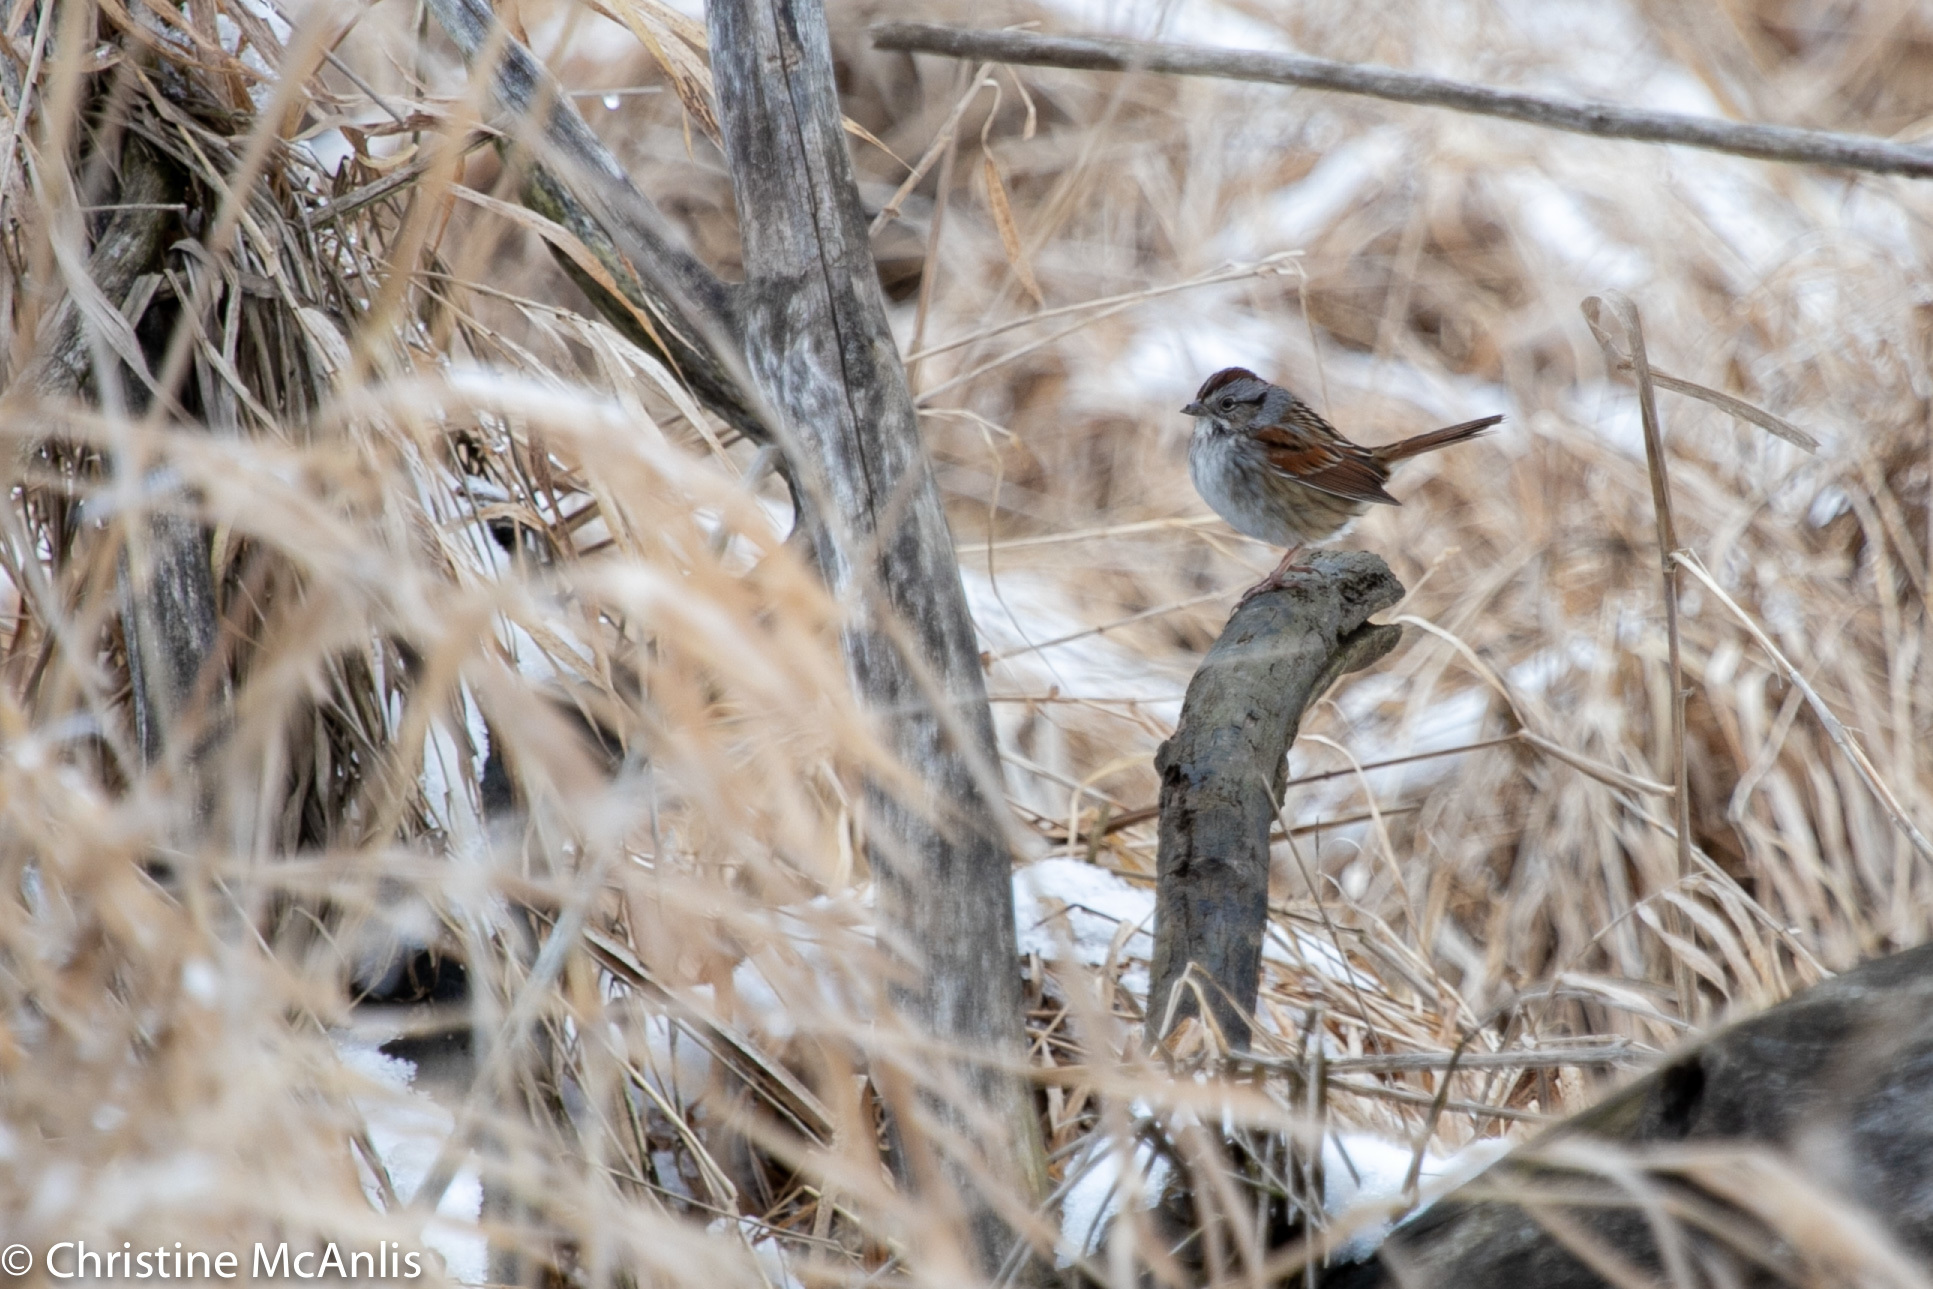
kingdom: Animalia
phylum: Chordata
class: Aves
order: Passeriformes
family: Passerellidae
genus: Melospiza
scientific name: Melospiza georgiana
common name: Swamp sparrow
